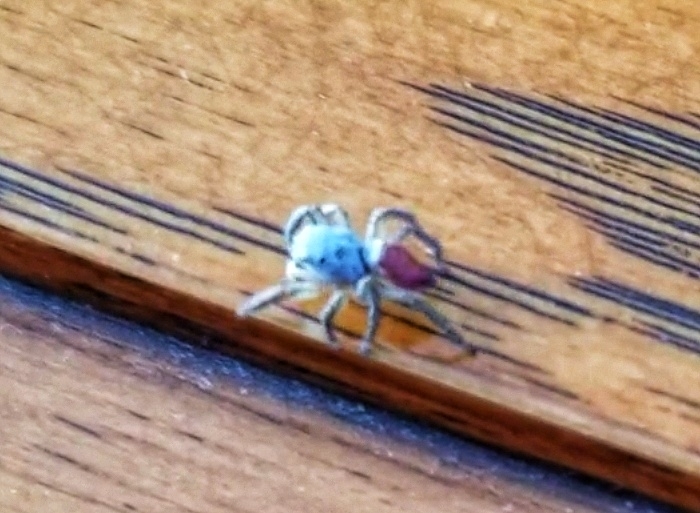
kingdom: Animalia
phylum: Arthropoda
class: Arachnida
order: Araneae
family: Salticidae
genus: Habronattus
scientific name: Habronattus decorus
